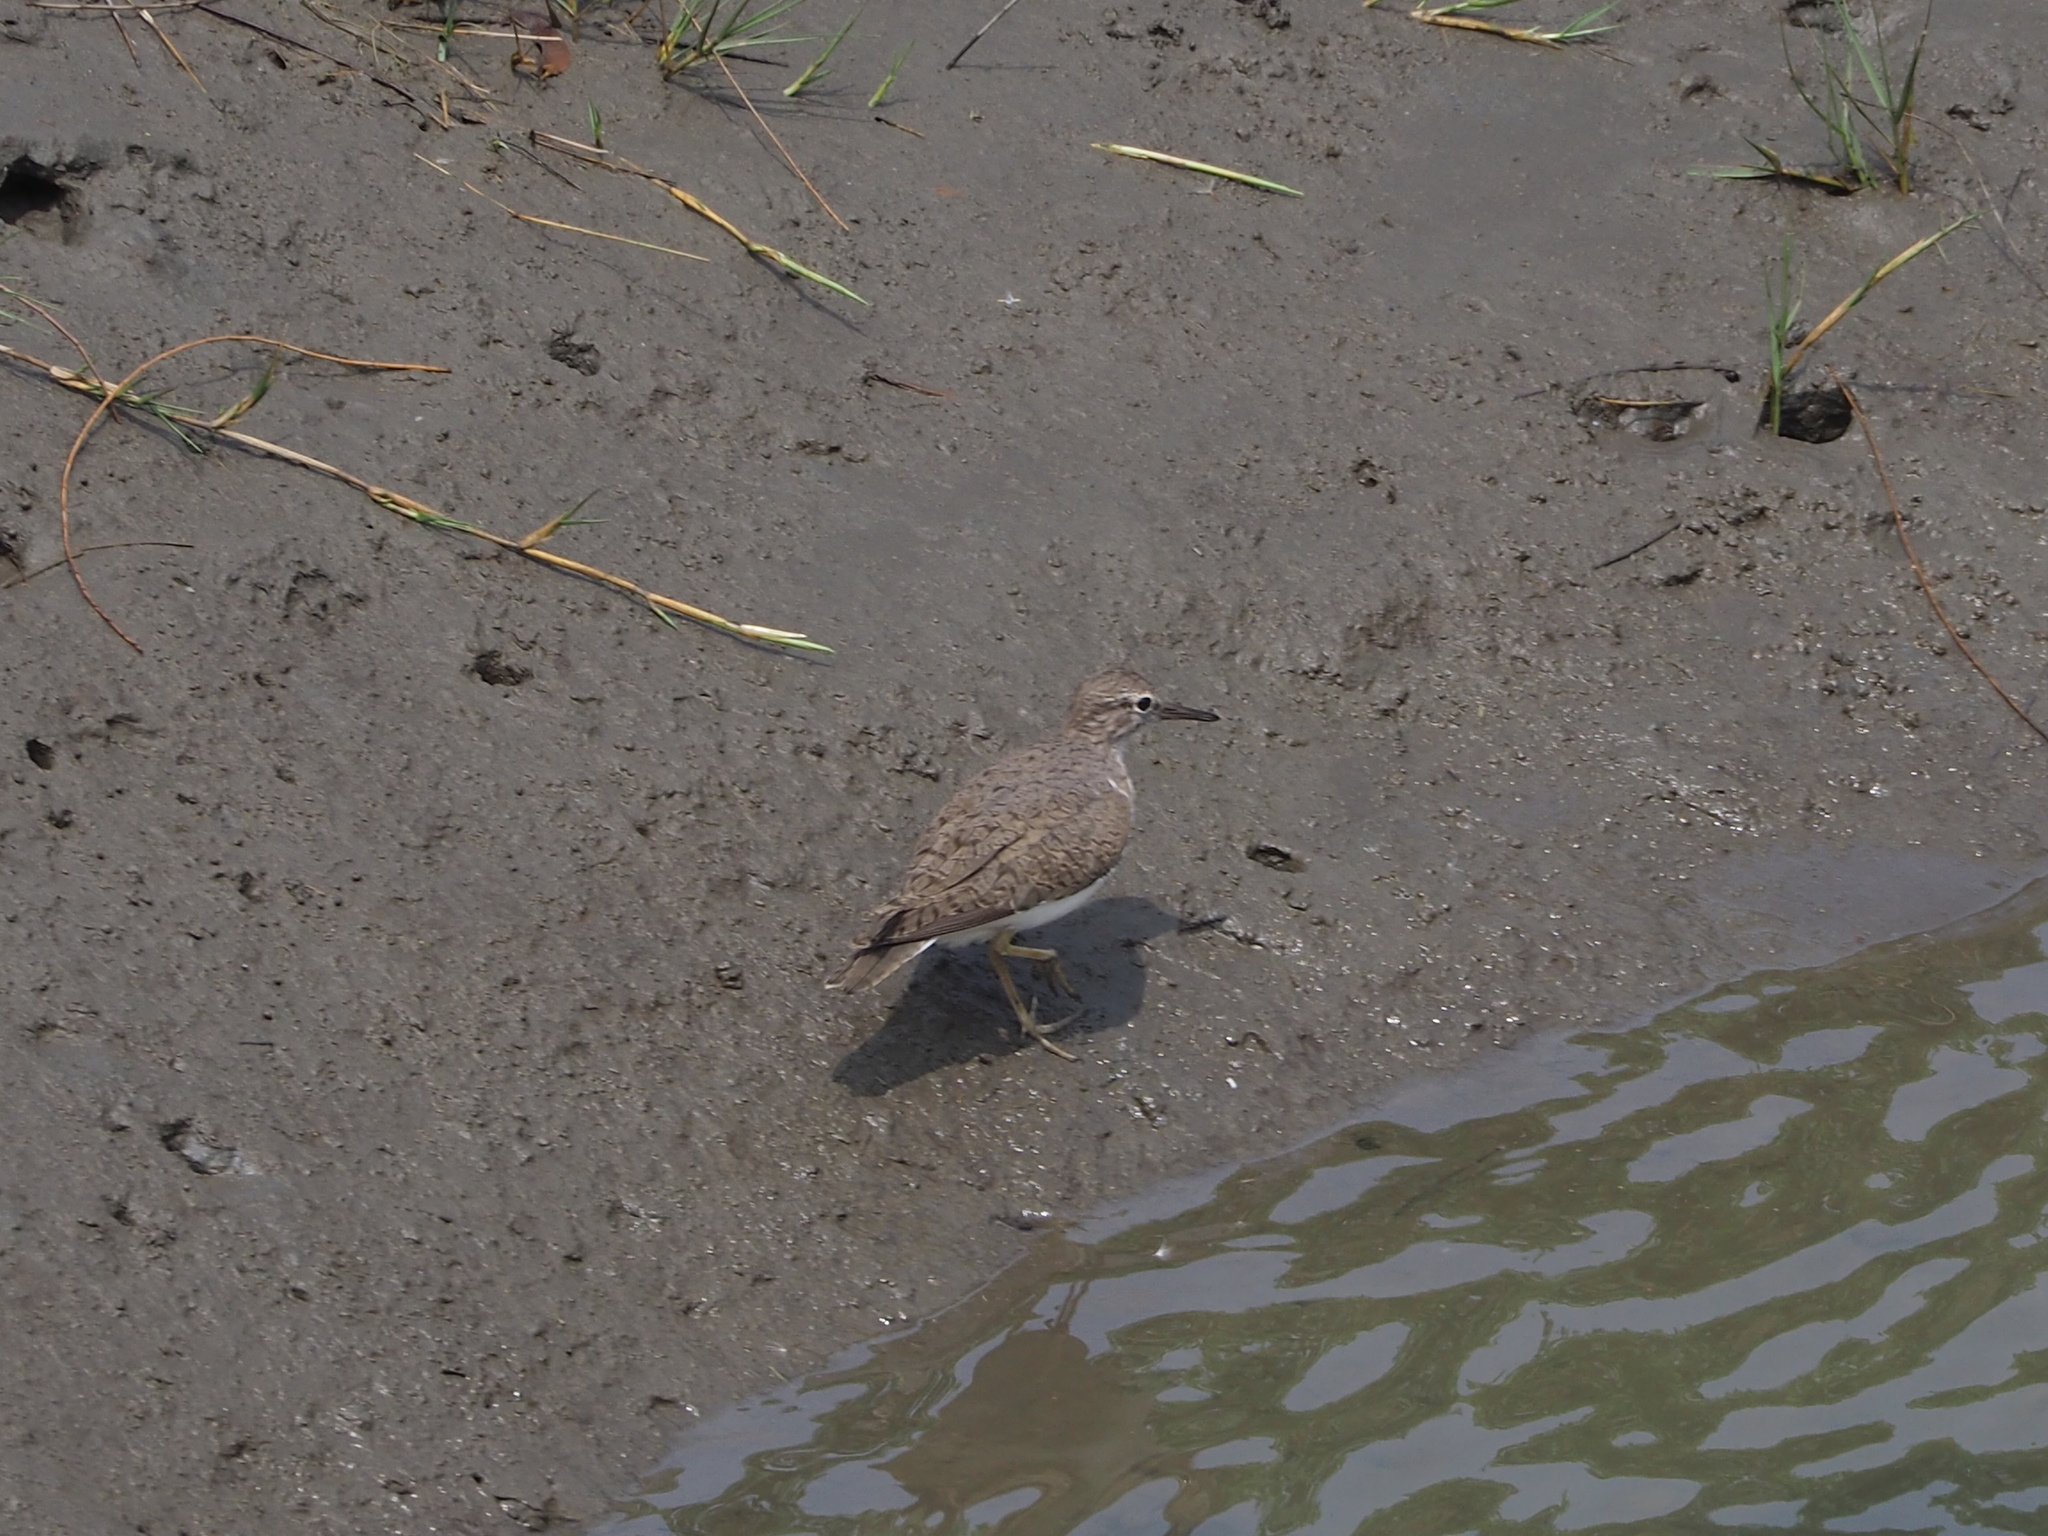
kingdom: Animalia
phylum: Chordata
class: Aves
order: Charadriiformes
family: Scolopacidae
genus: Actitis
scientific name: Actitis hypoleucos
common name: Common sandpiper
